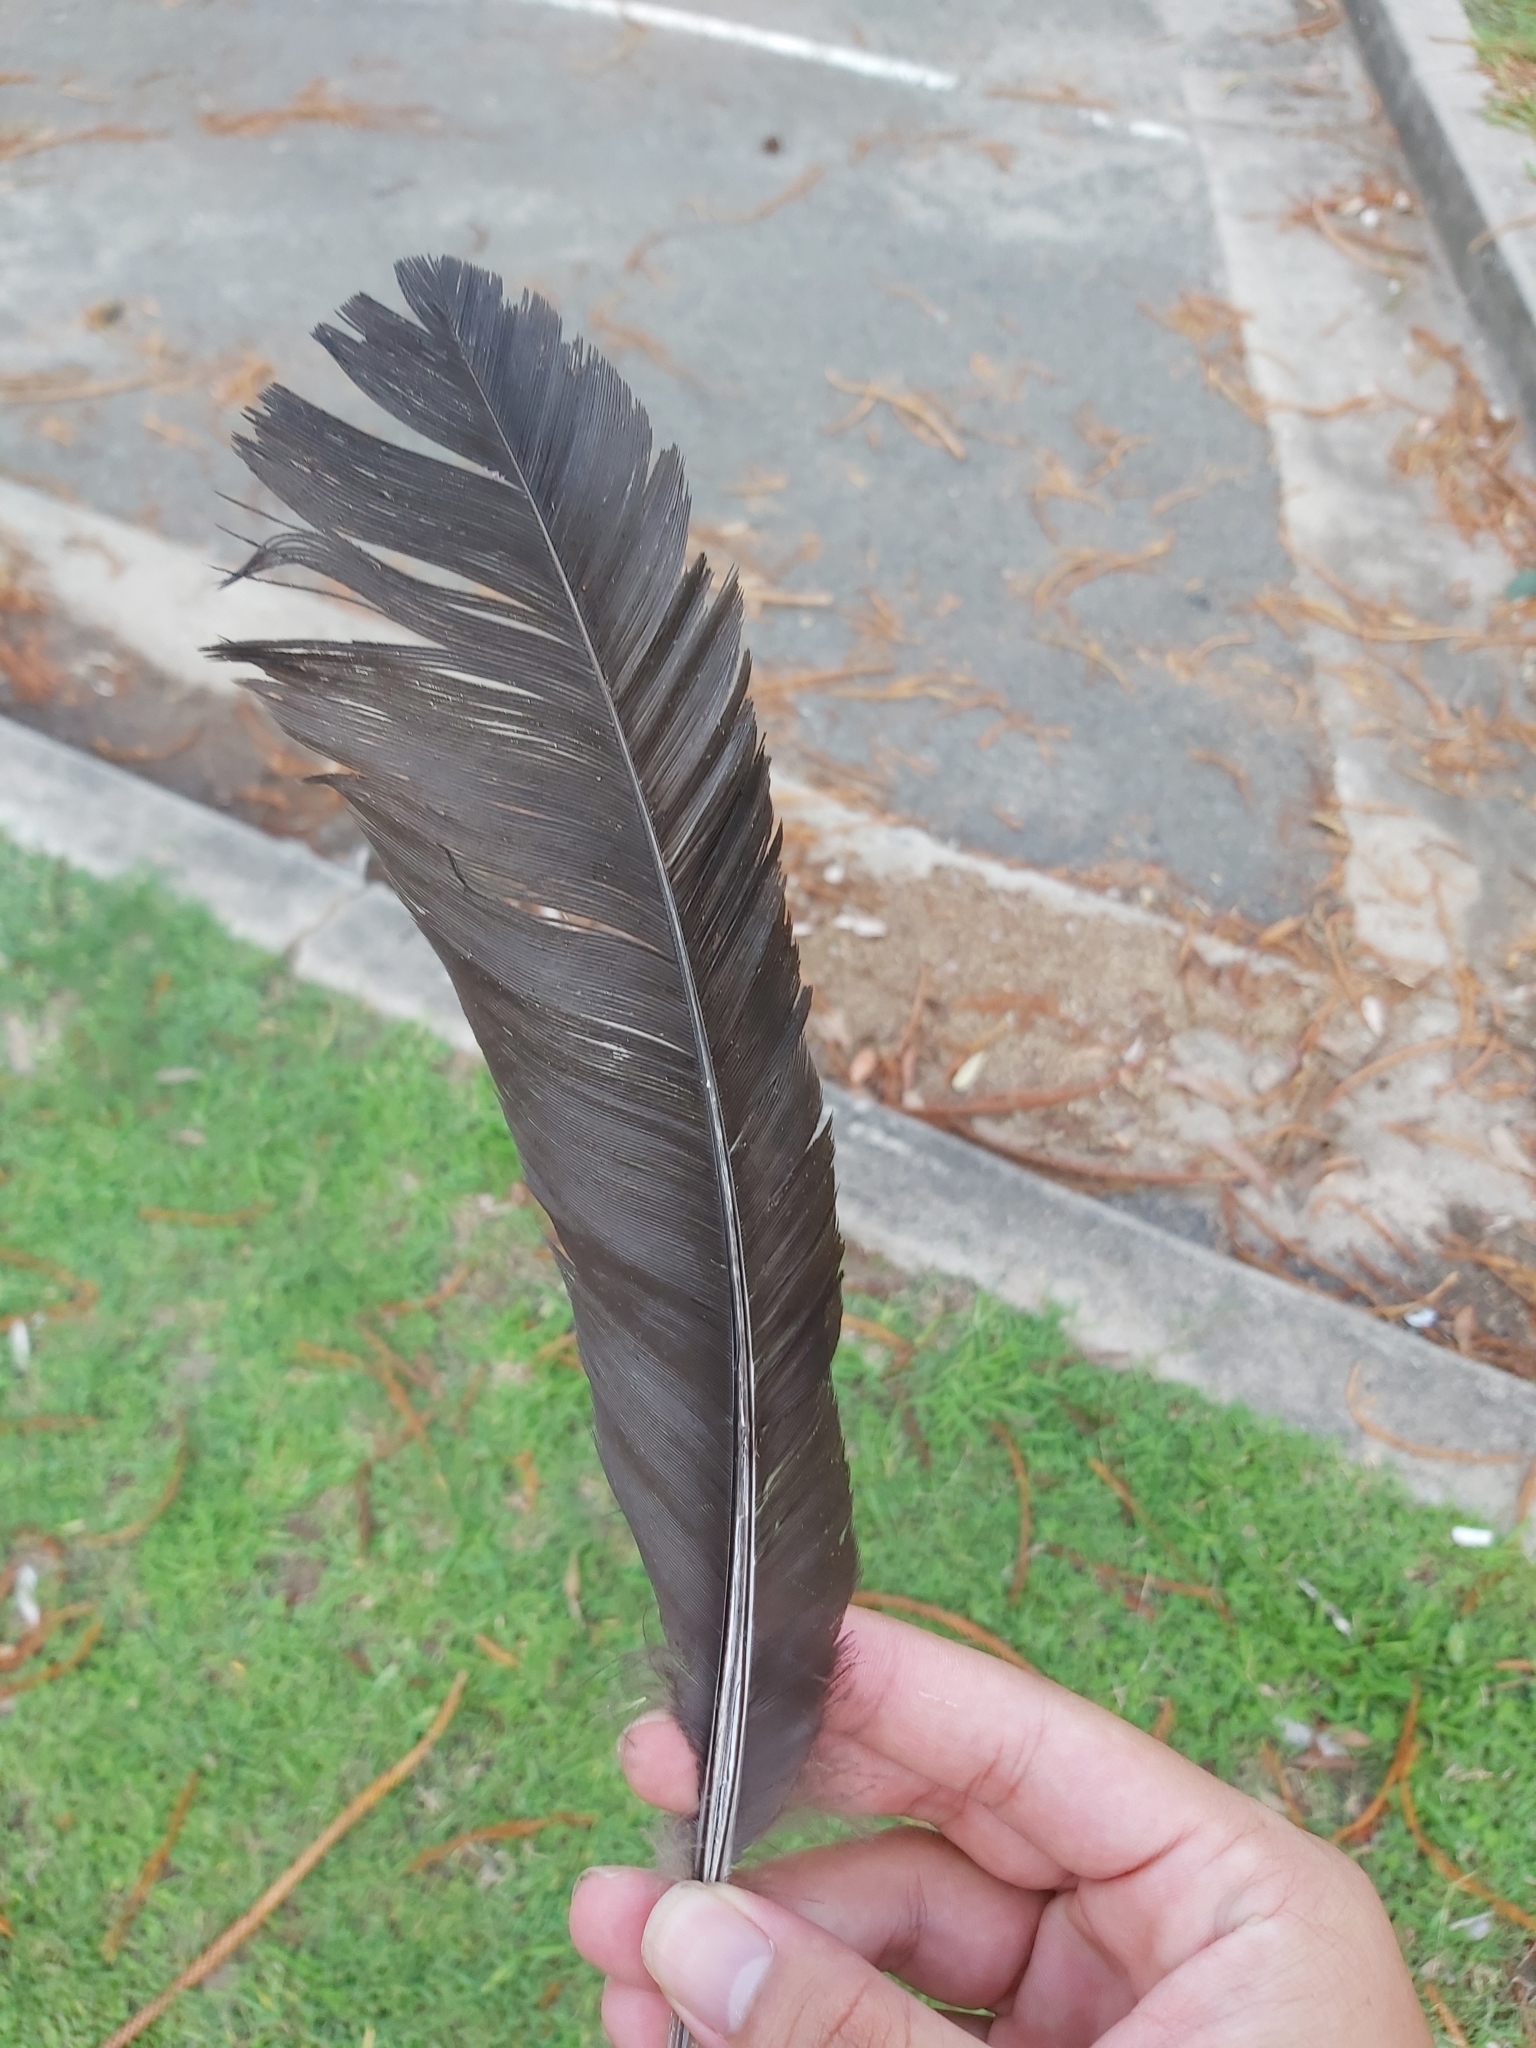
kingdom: Animalia
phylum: Chordata
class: Aves
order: Galliformes
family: Megapodiidae
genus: Alectura
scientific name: Alectura lathami
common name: Australian brushturkey
